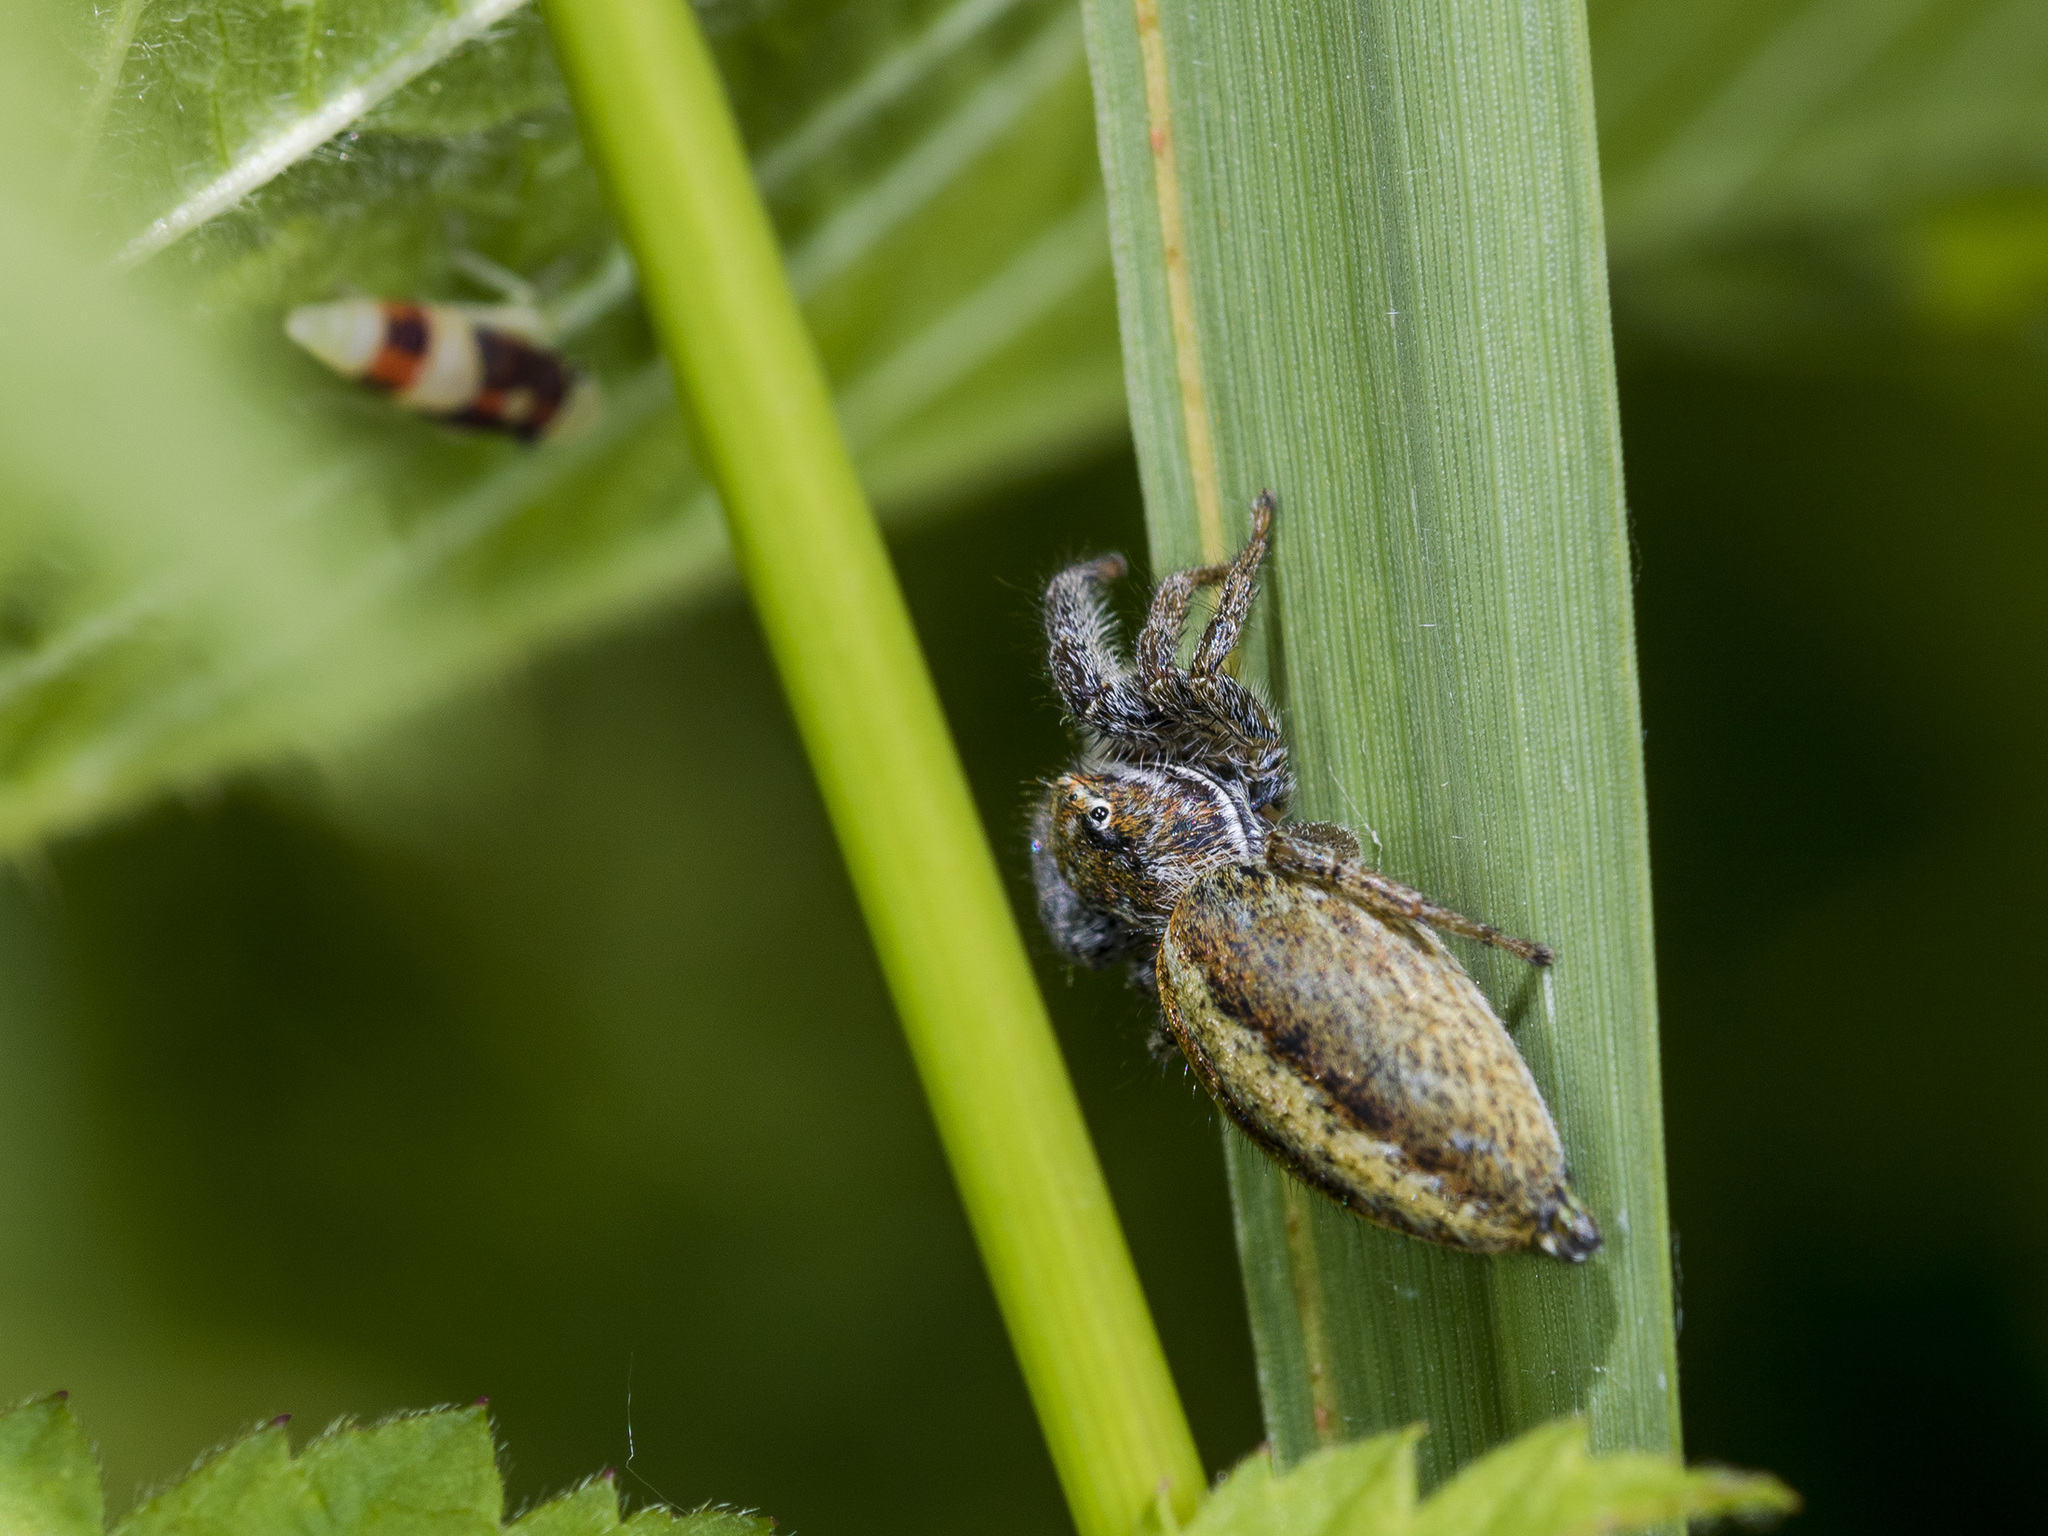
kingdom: Animalia
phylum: Arthropoda
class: Arachnida
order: Araneae
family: Salticidae
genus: Marpissa
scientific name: Marpissa pomatia
